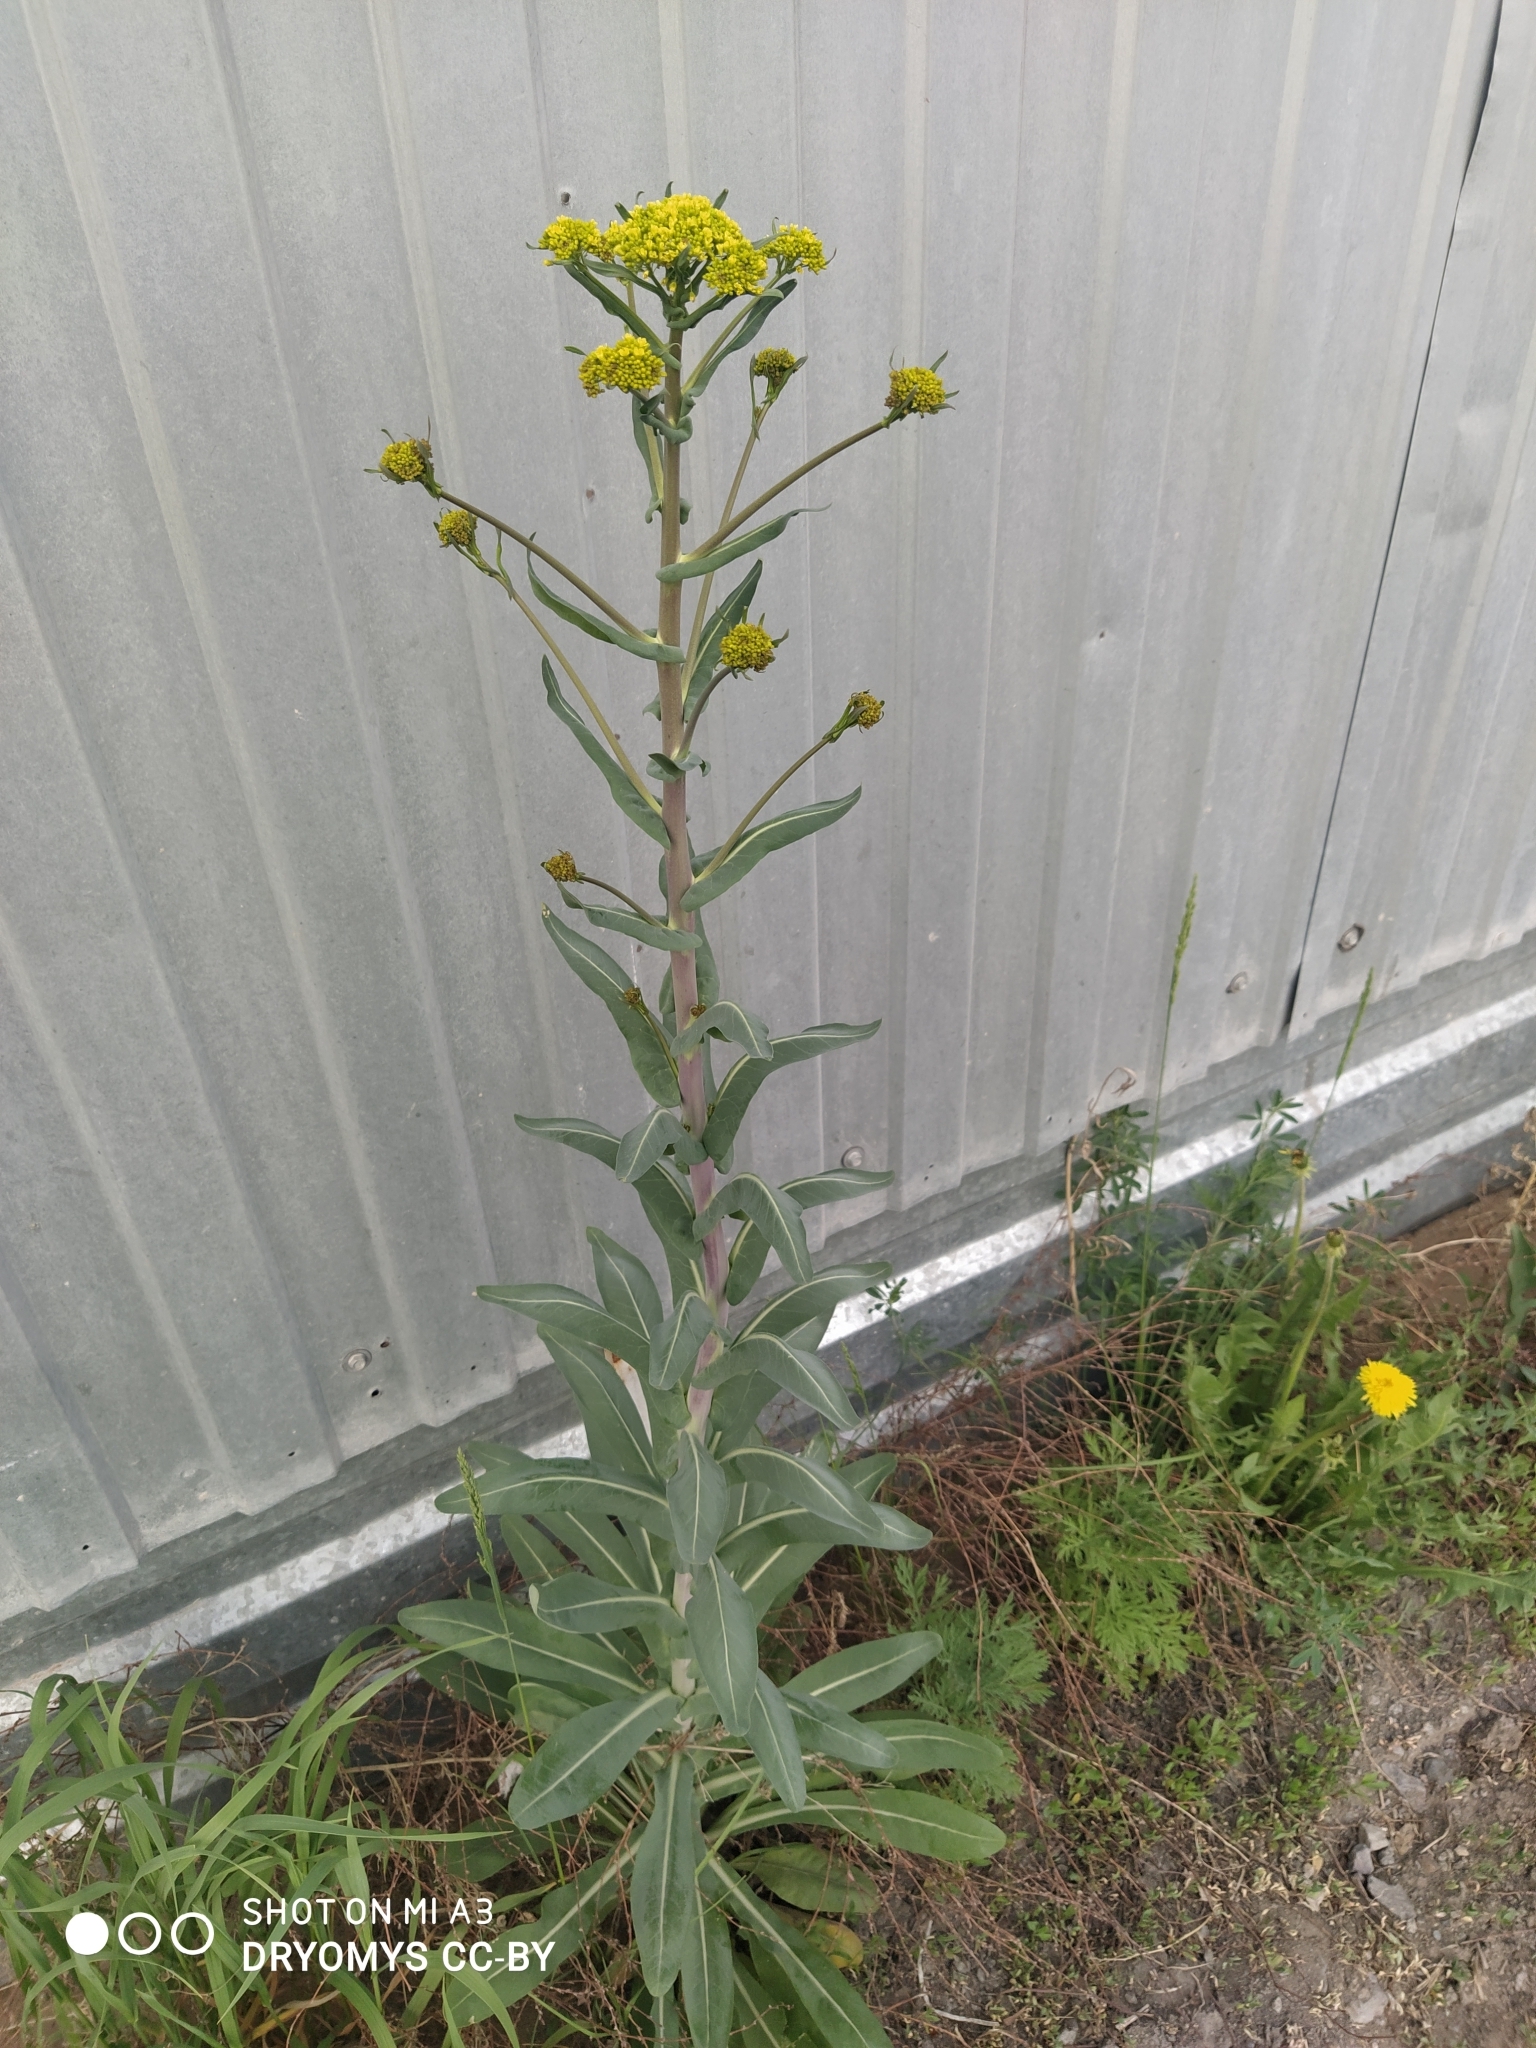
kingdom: Plantae
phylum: Tracheophyta
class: Magnoliopsida
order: Brassicales
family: Brassicaceae
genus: Isatis
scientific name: Isatis tinctoria
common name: Woad
